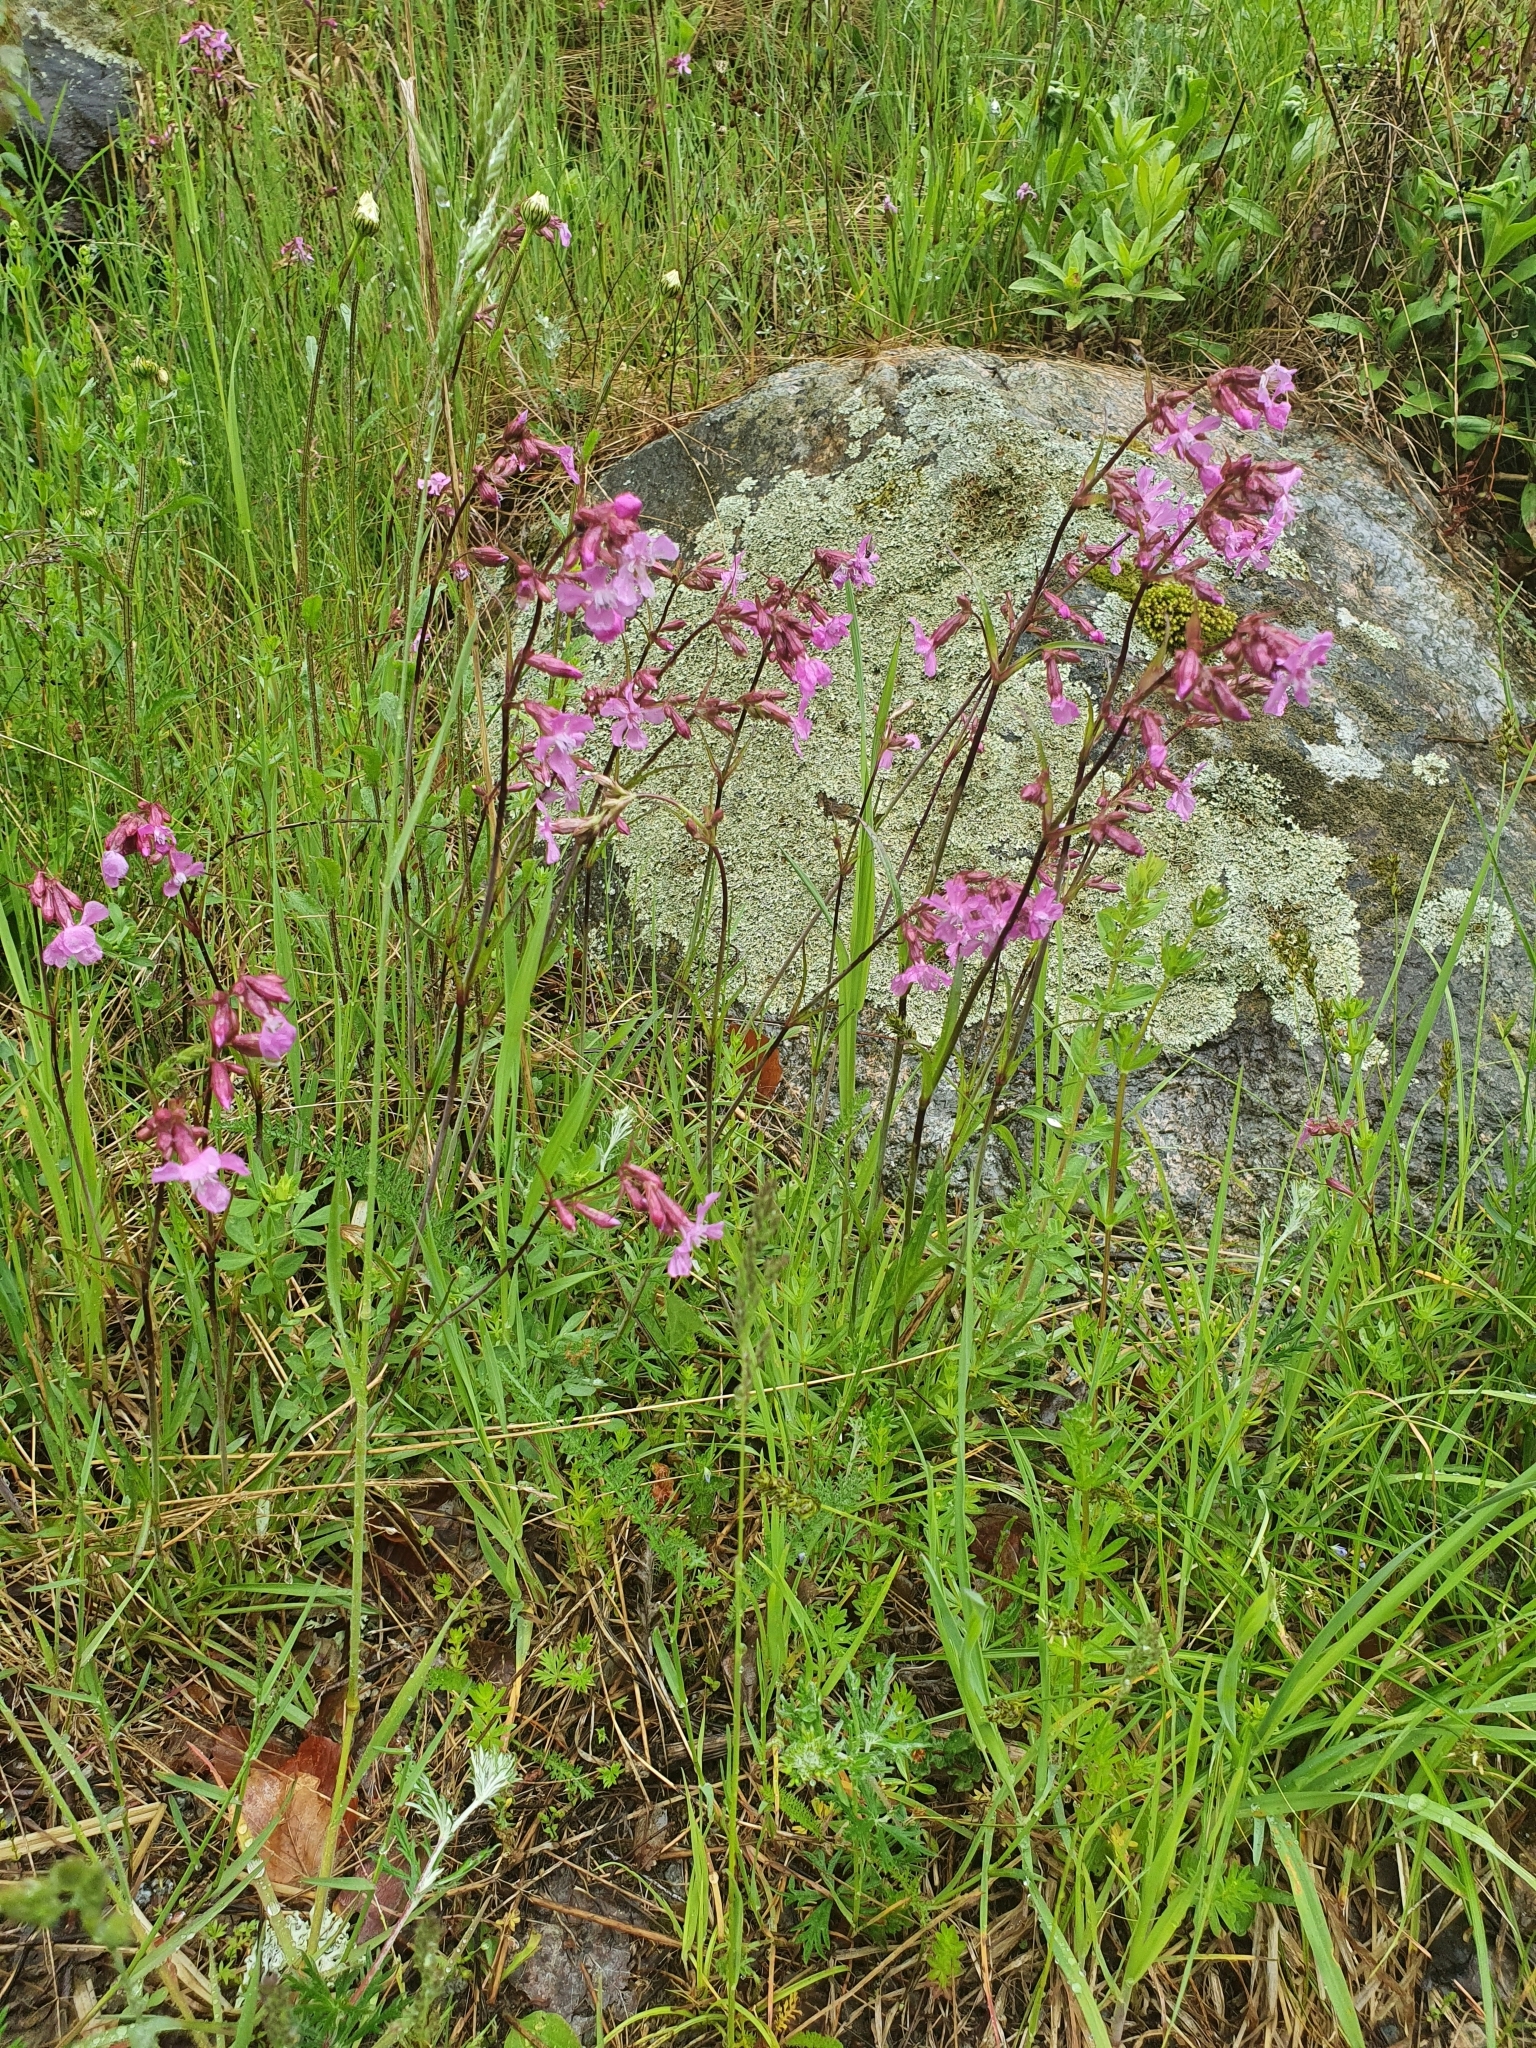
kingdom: Plantae
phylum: Tracheophyta
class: Magnoliopsida
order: Caryophyllales
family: Caryophyllaceae
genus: Viscaria
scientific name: Viscaria vulgaris
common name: Clammy campion
